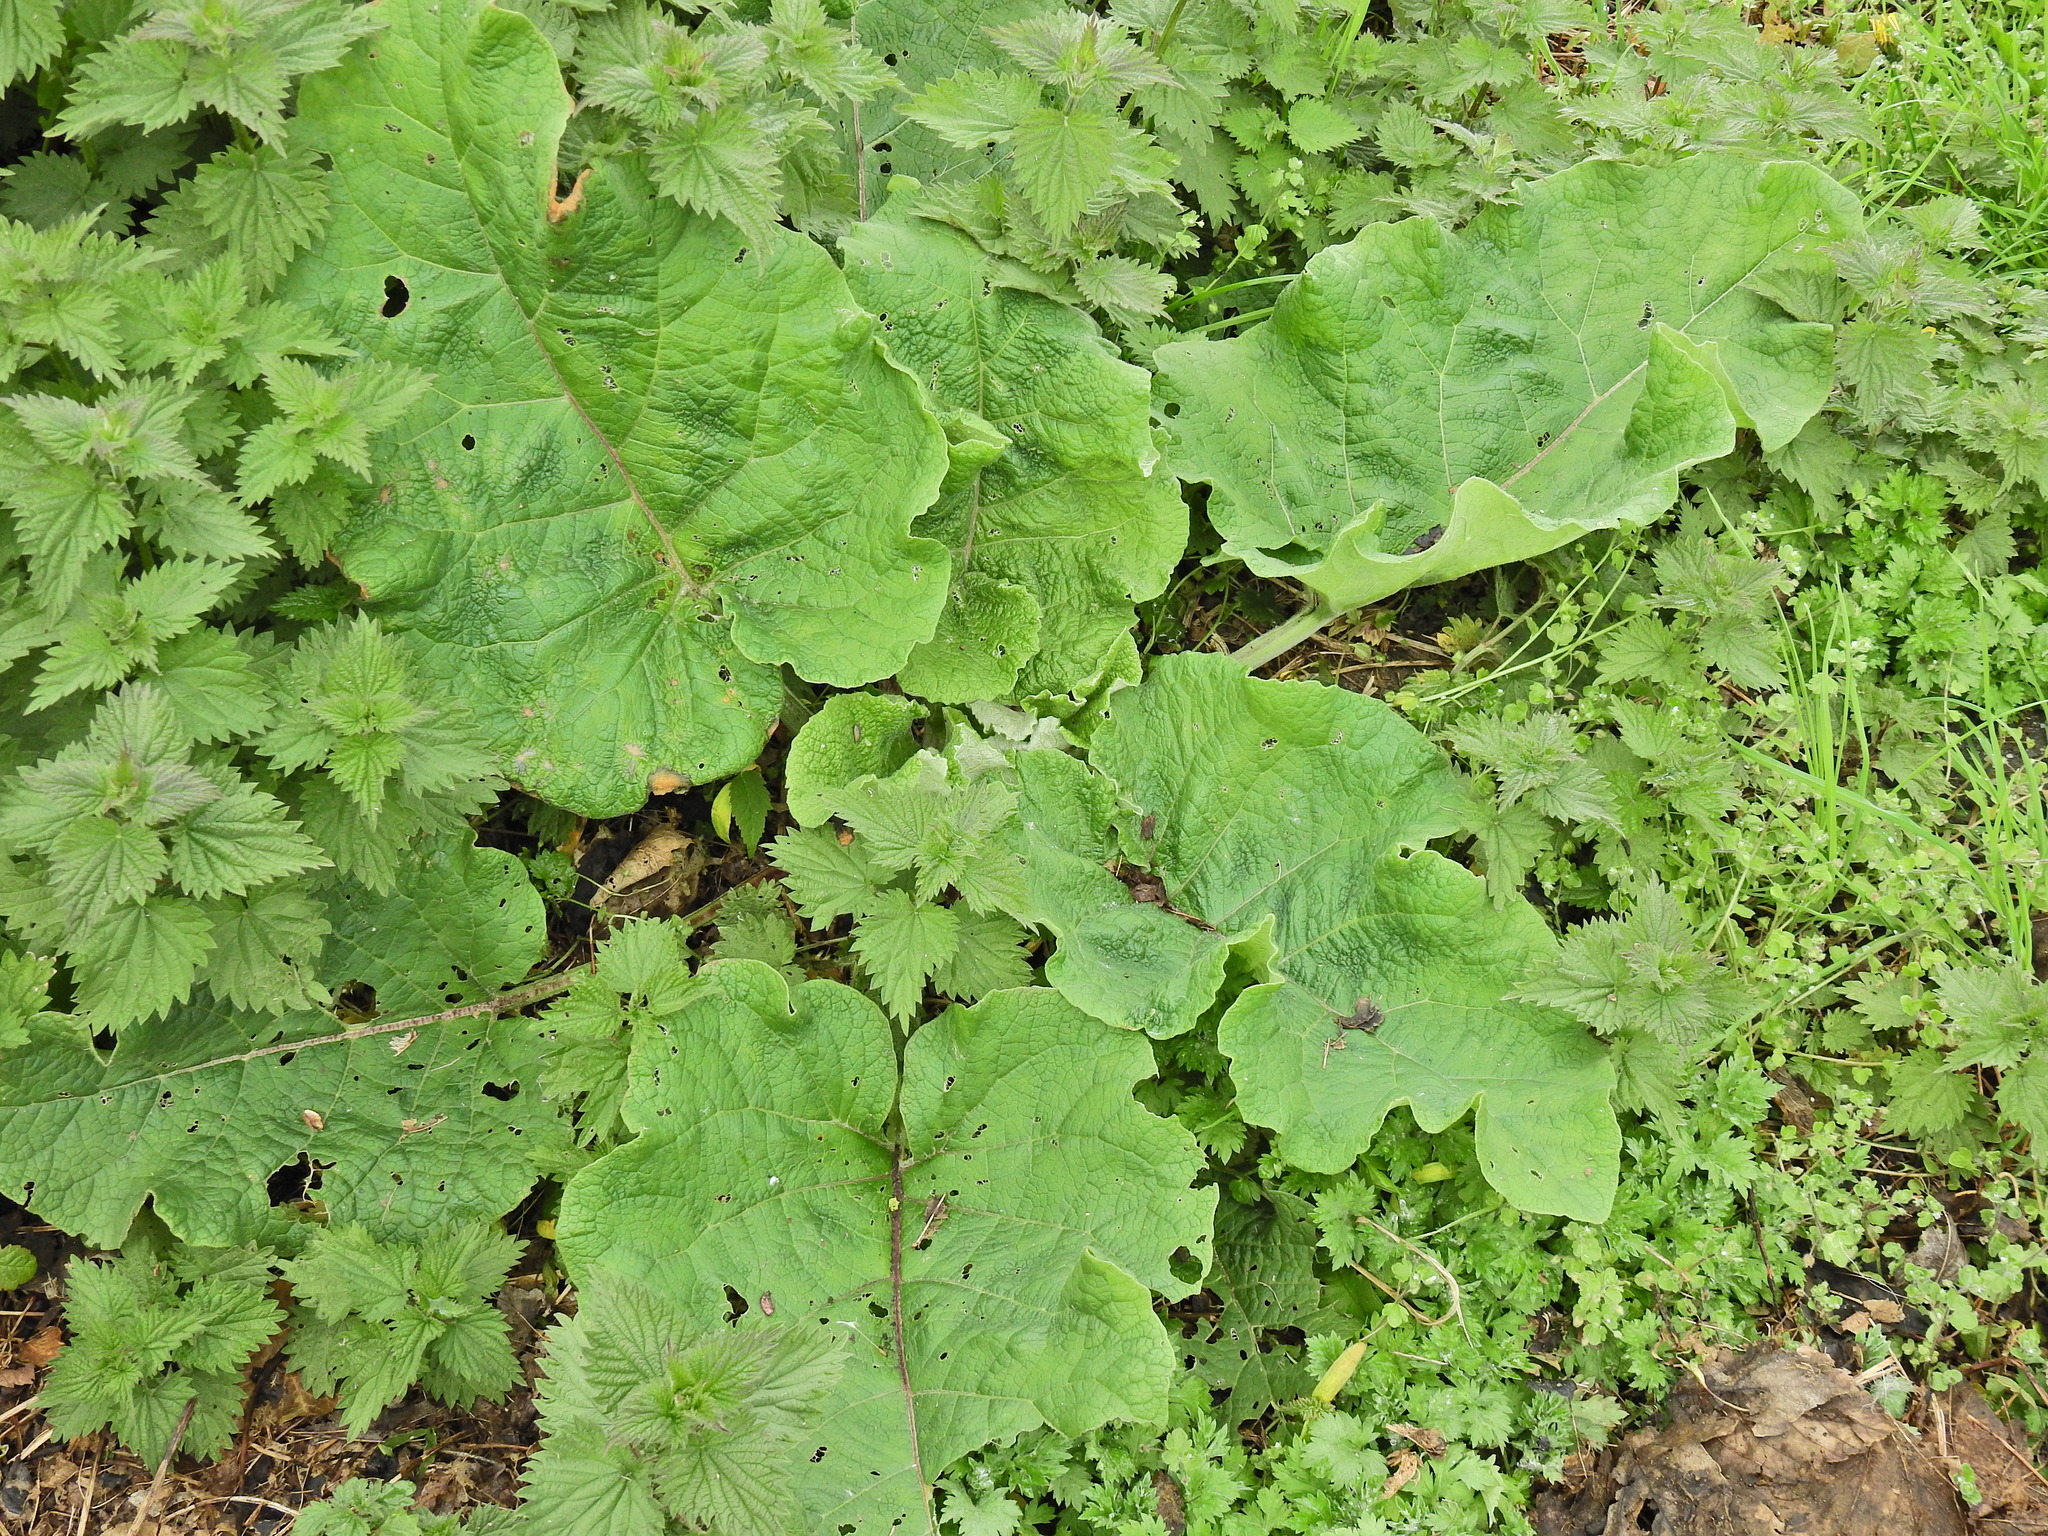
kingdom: Plantae
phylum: Tracheophyta
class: Magnoliopsida
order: Asterales
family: Asteraceae
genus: Arctium
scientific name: Arctium minus
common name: Lesser burdock
